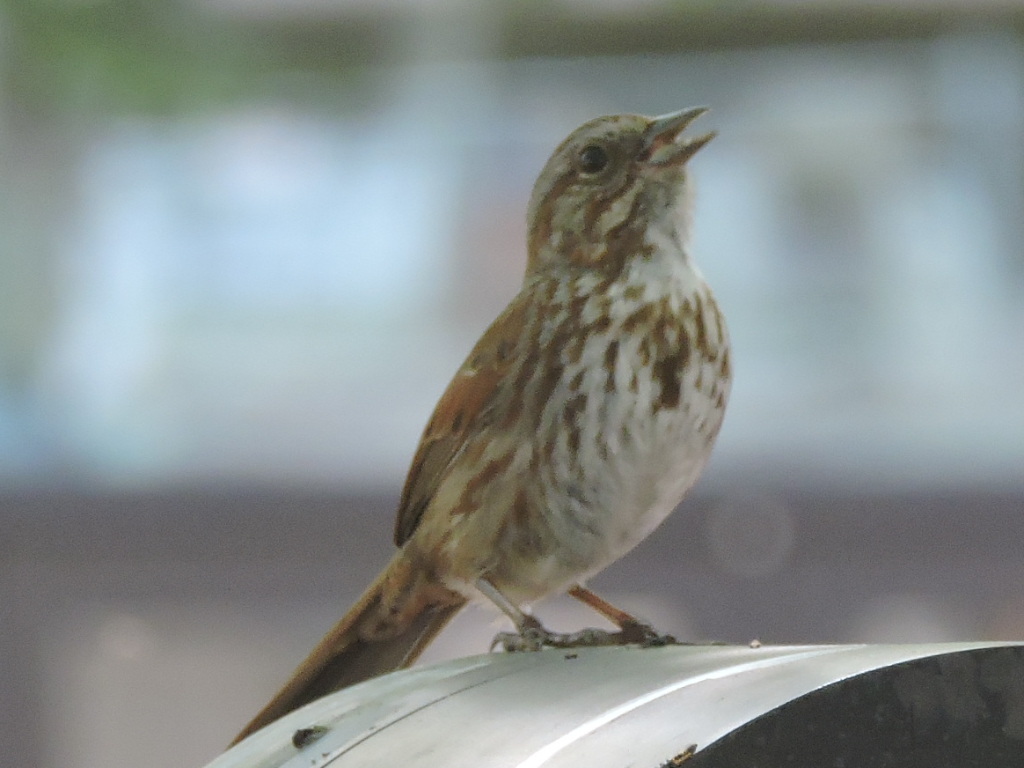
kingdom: Animalia
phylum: Chordata
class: Aves
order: Passeriformes
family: Passerellidae
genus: Melospiza
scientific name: Melospiza melodia
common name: Song sparrow
